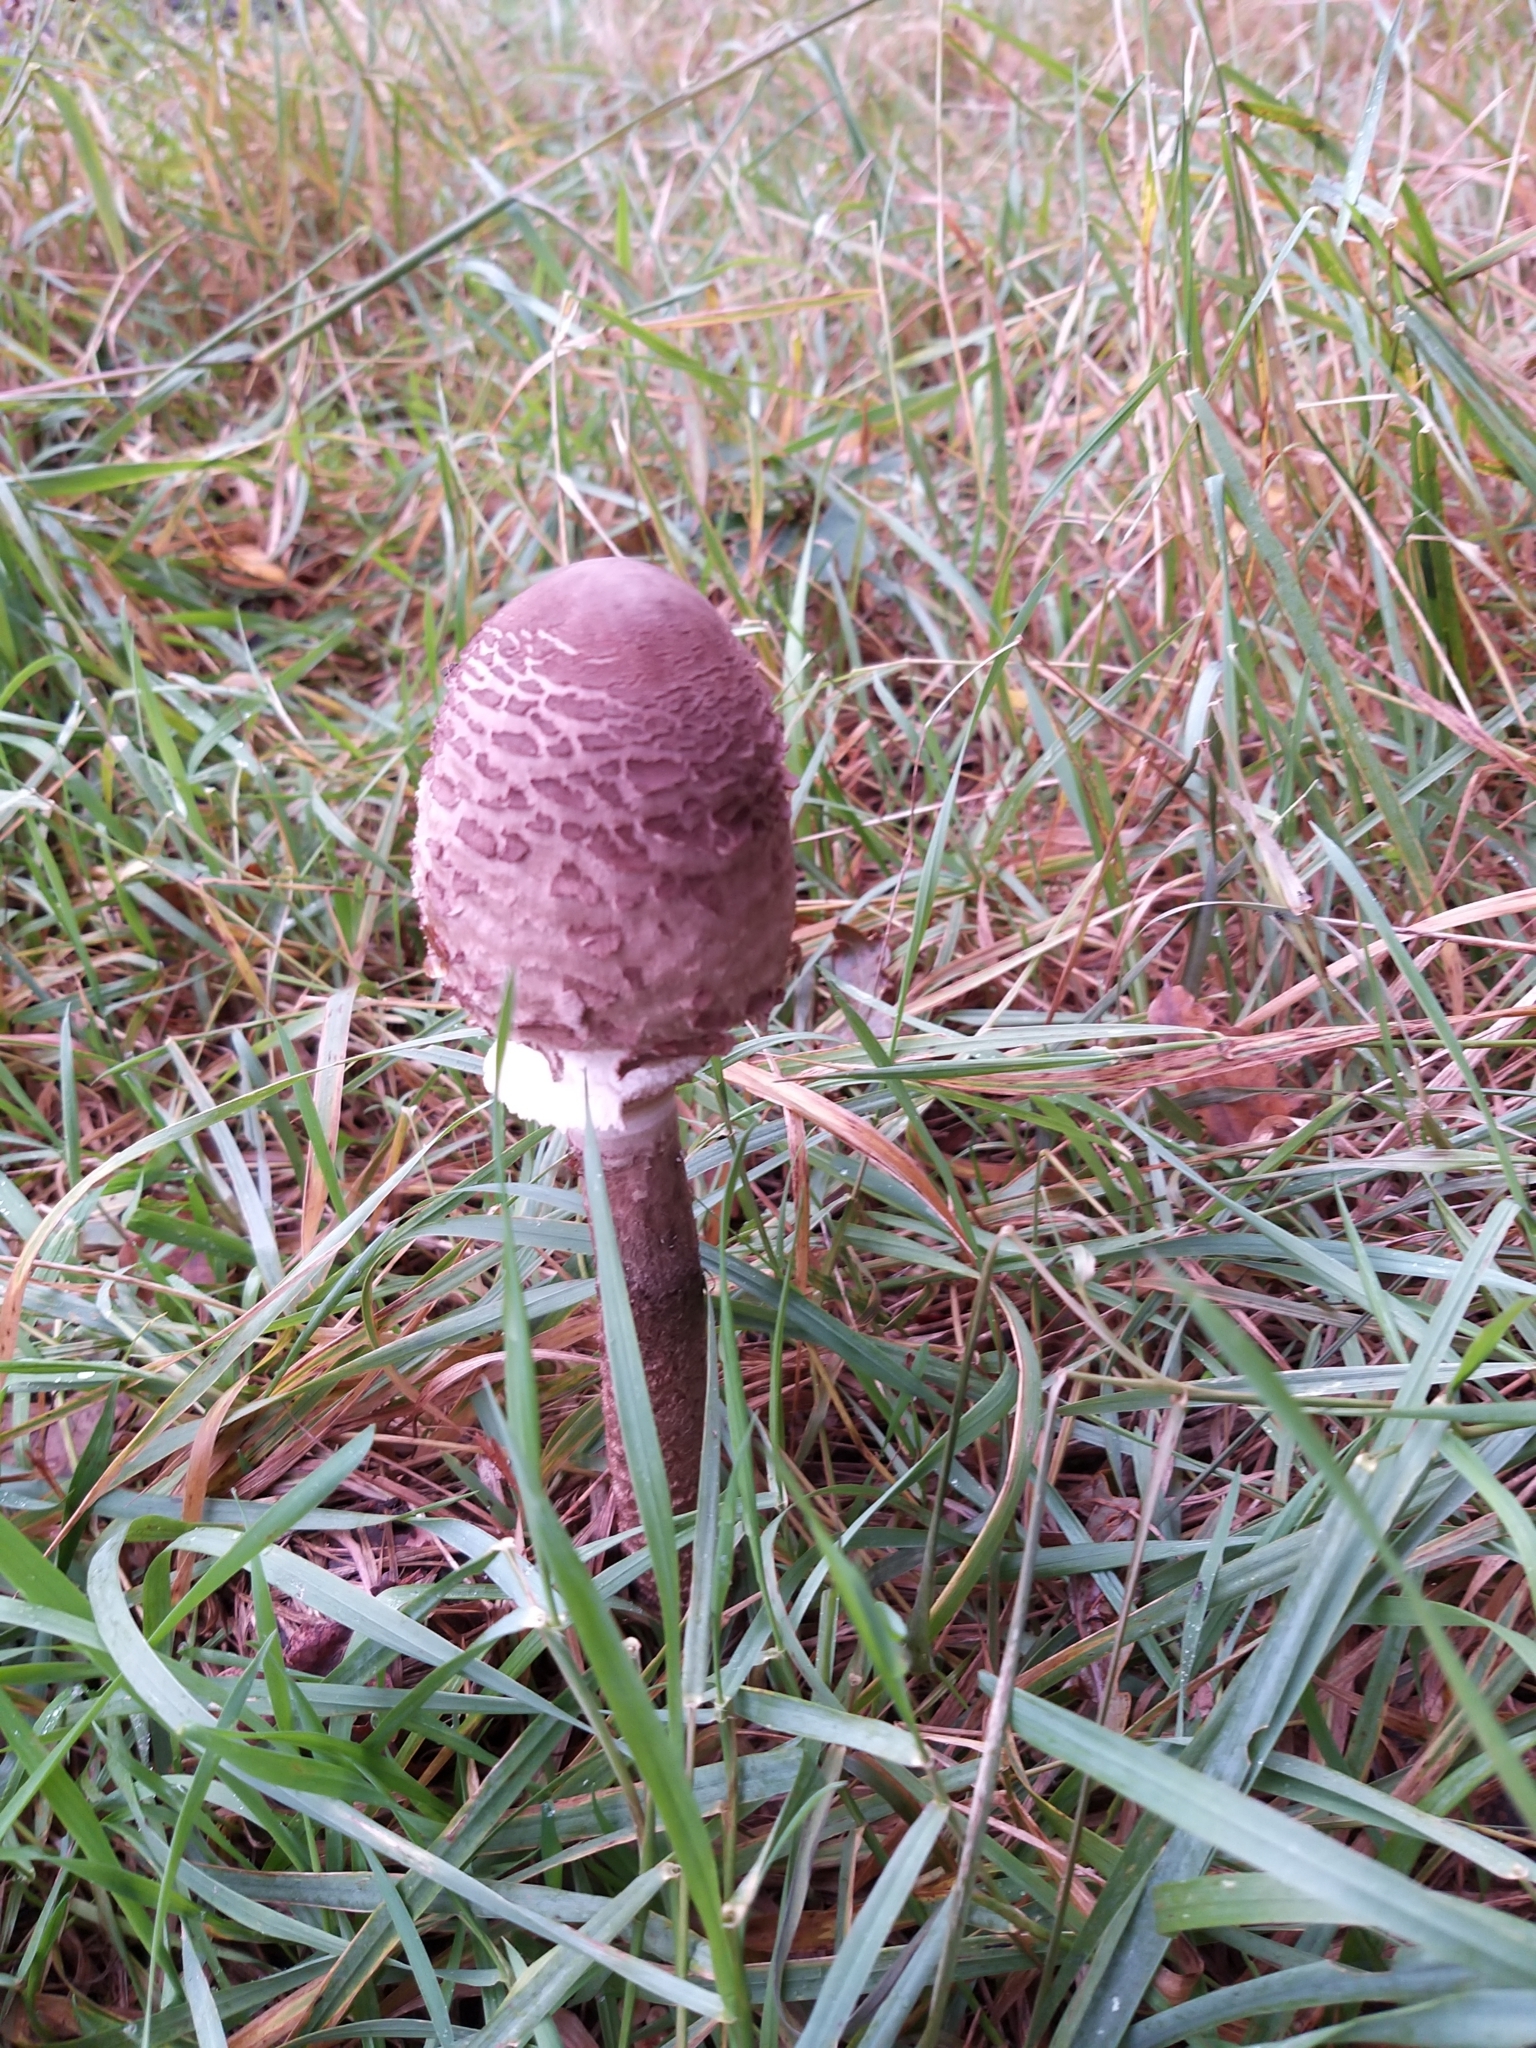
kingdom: Fungi
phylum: Basidiomycota
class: Agaricomycetes
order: Agaricales
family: Agaricaceae
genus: Macrolepiota
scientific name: Macrolepiota procera
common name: Parasol
